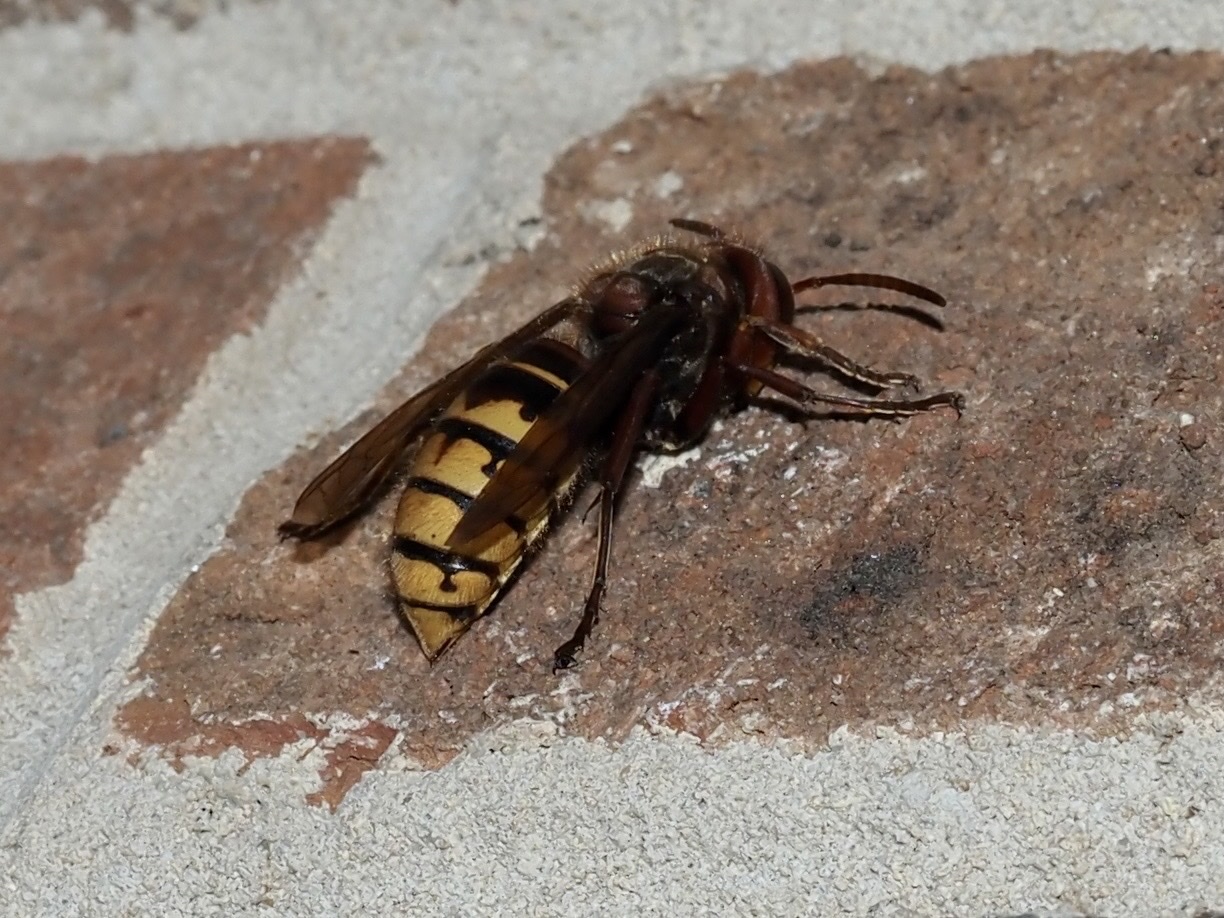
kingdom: Animalia
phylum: Arthropoda
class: Insecta
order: Hymenoptera
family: Vespidae
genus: Vespa
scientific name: Vespa crabro
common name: Hornet
